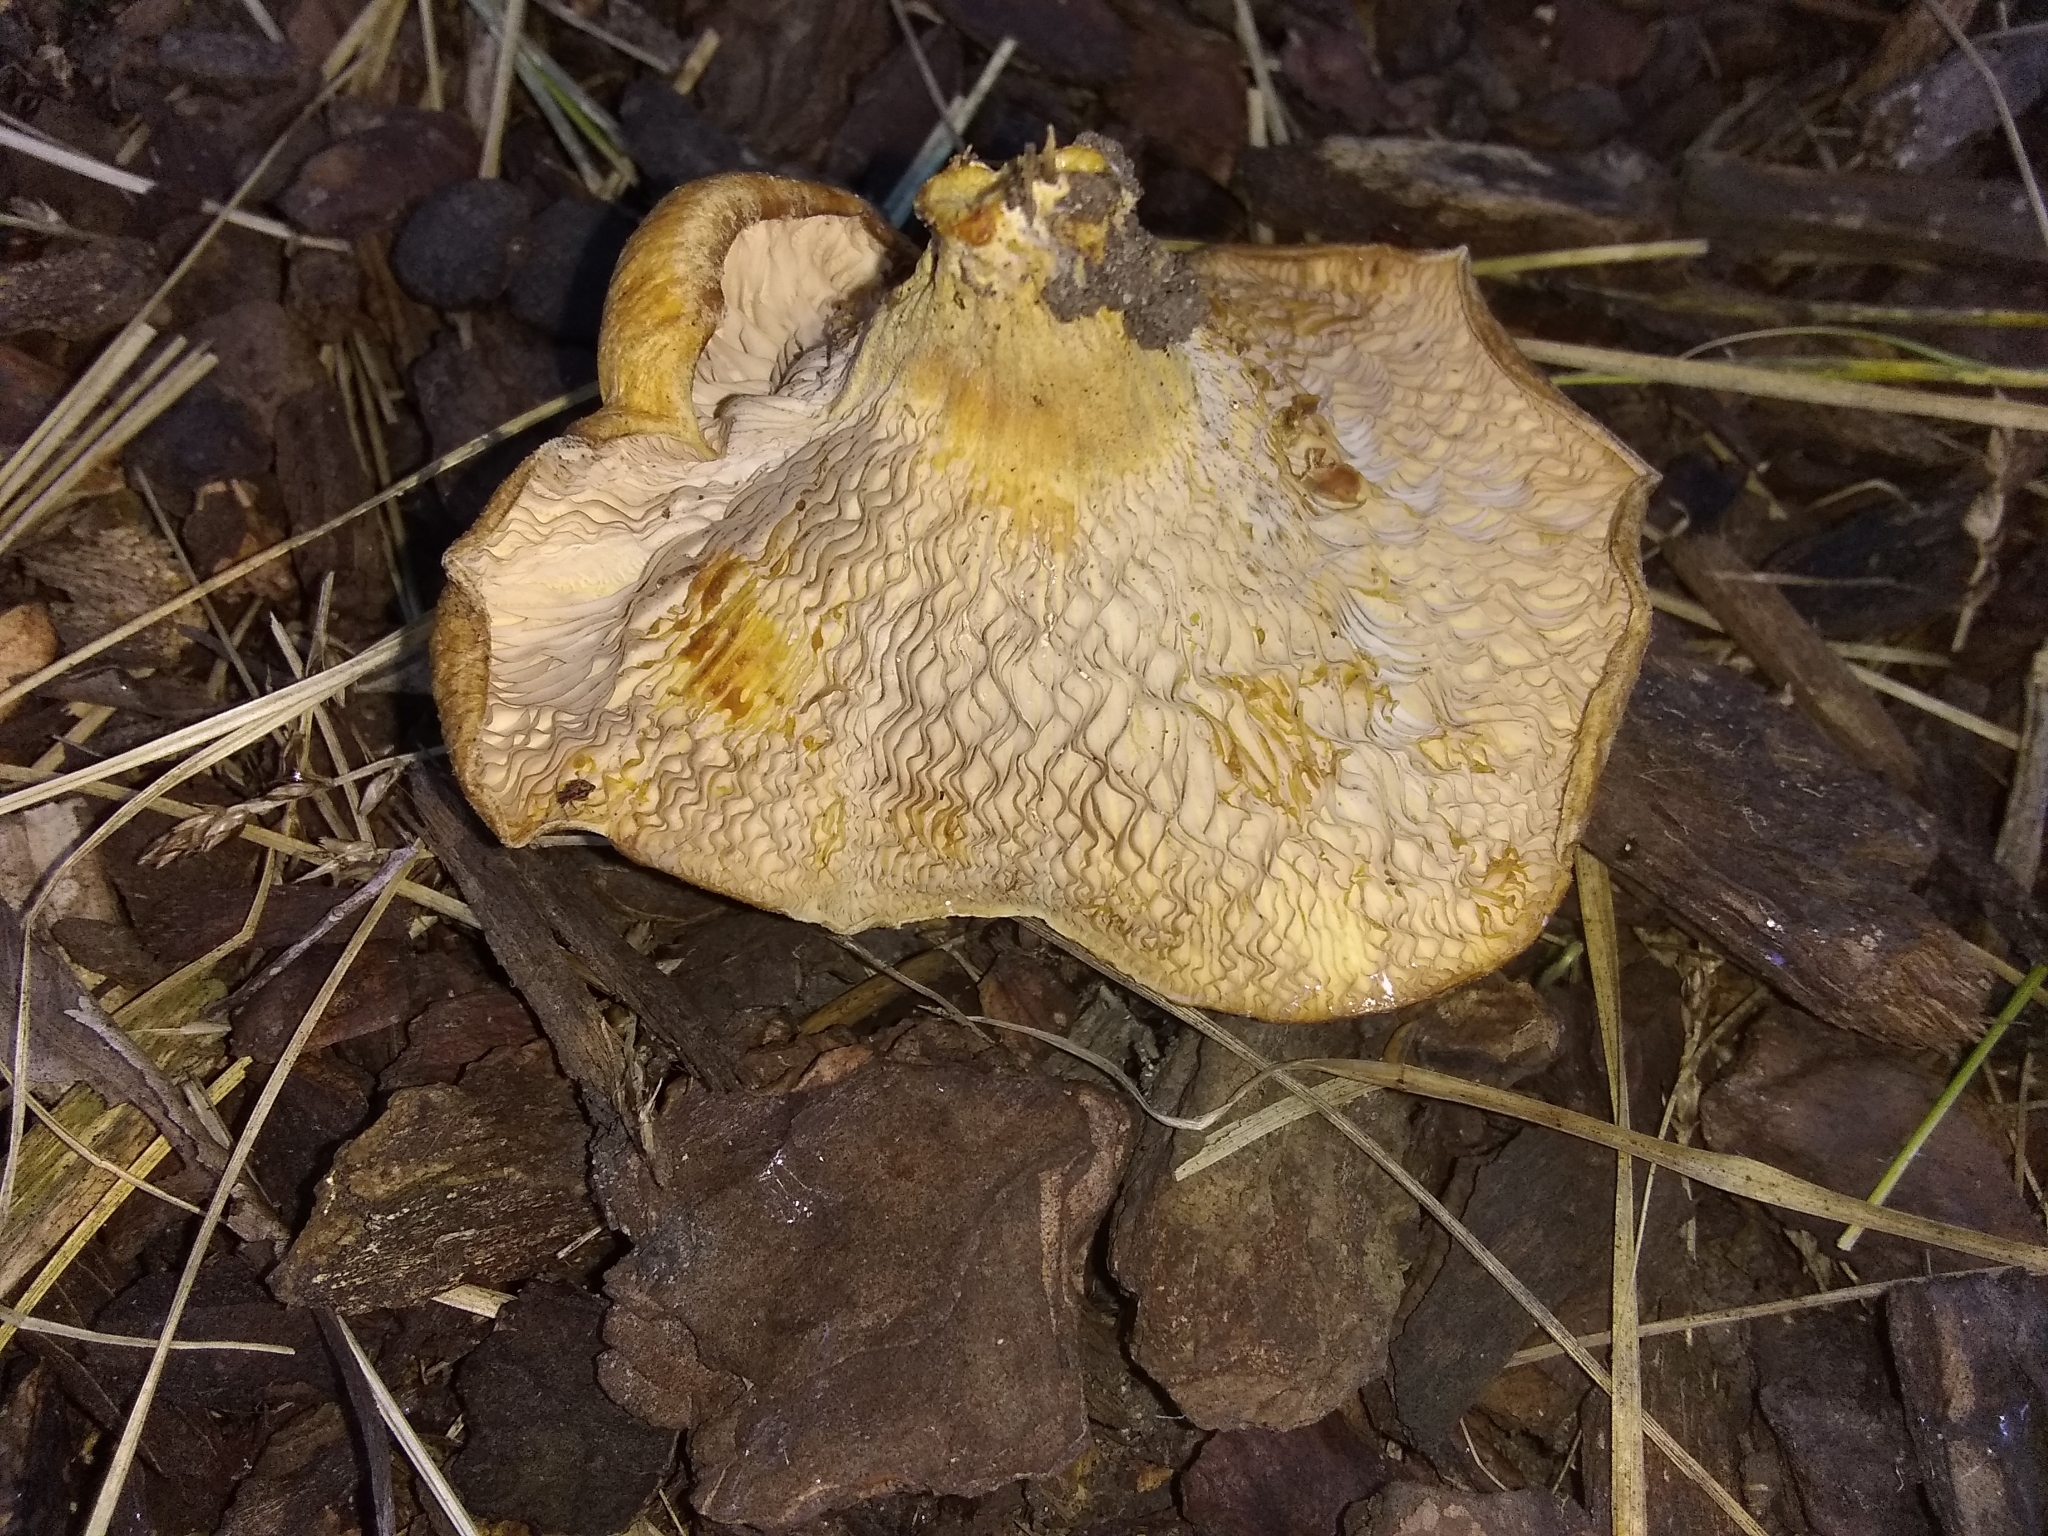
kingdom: Fungi
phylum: Basidiomycota
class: Agaricomycetes
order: Agaricales
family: Tricholomataceae
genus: Collybia
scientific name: Collybia
